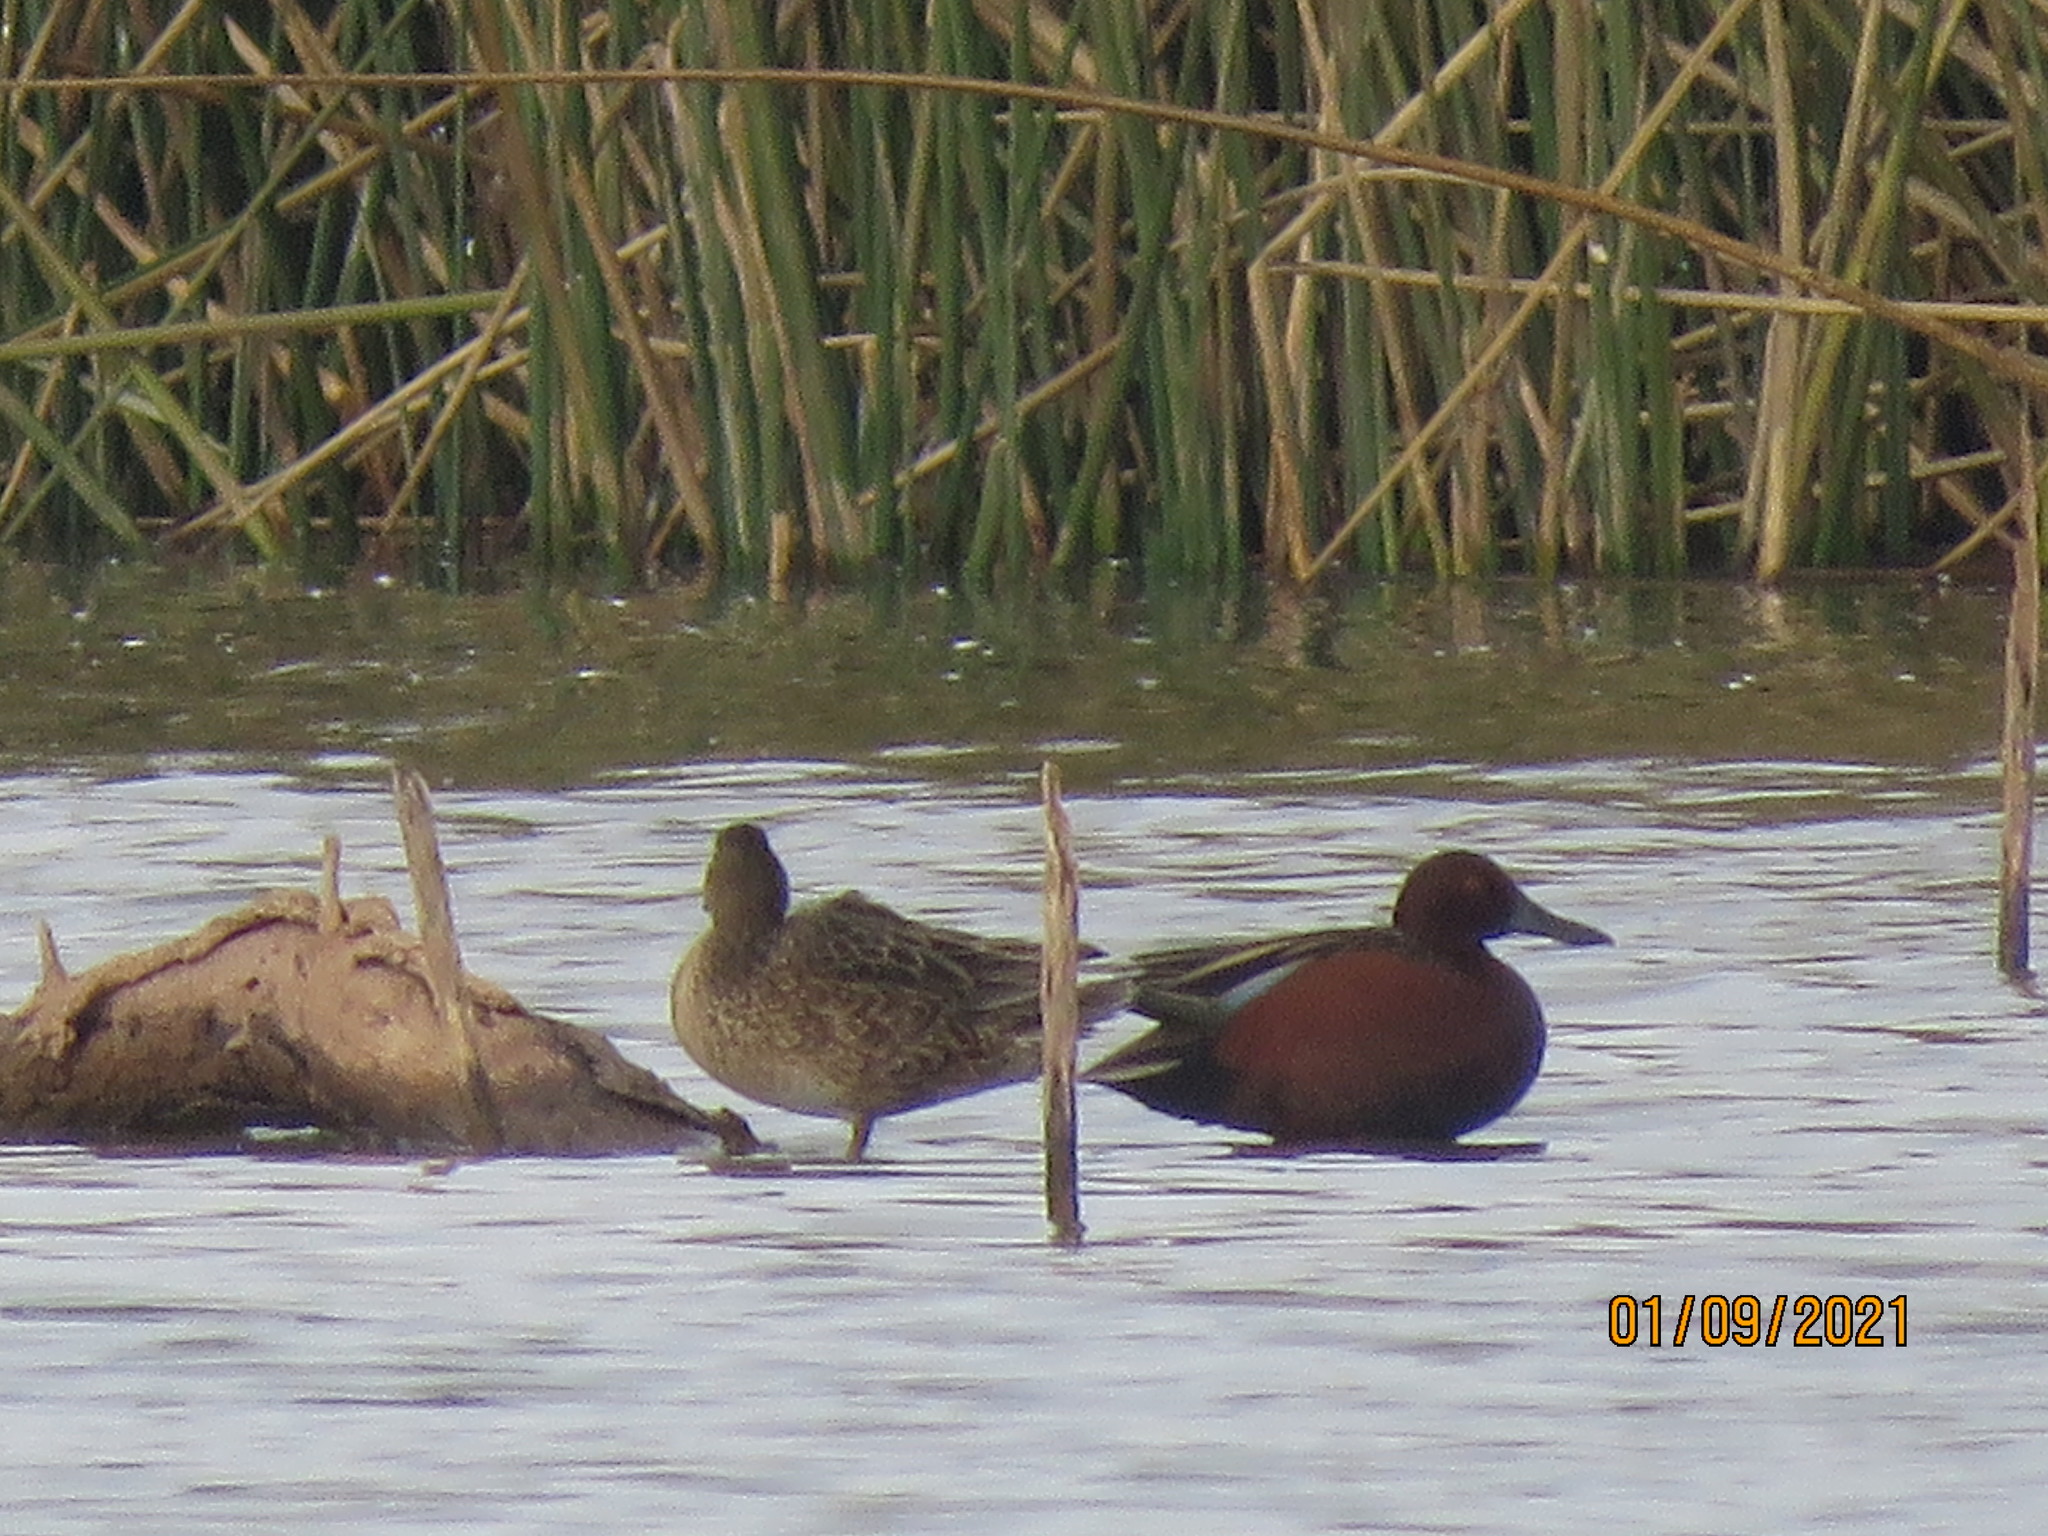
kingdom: Animalia
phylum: Chordata
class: Aves
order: Anseriformes
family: Anatidae
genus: Spatula
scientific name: Spatula cyanoptera
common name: Cinnamon teal
